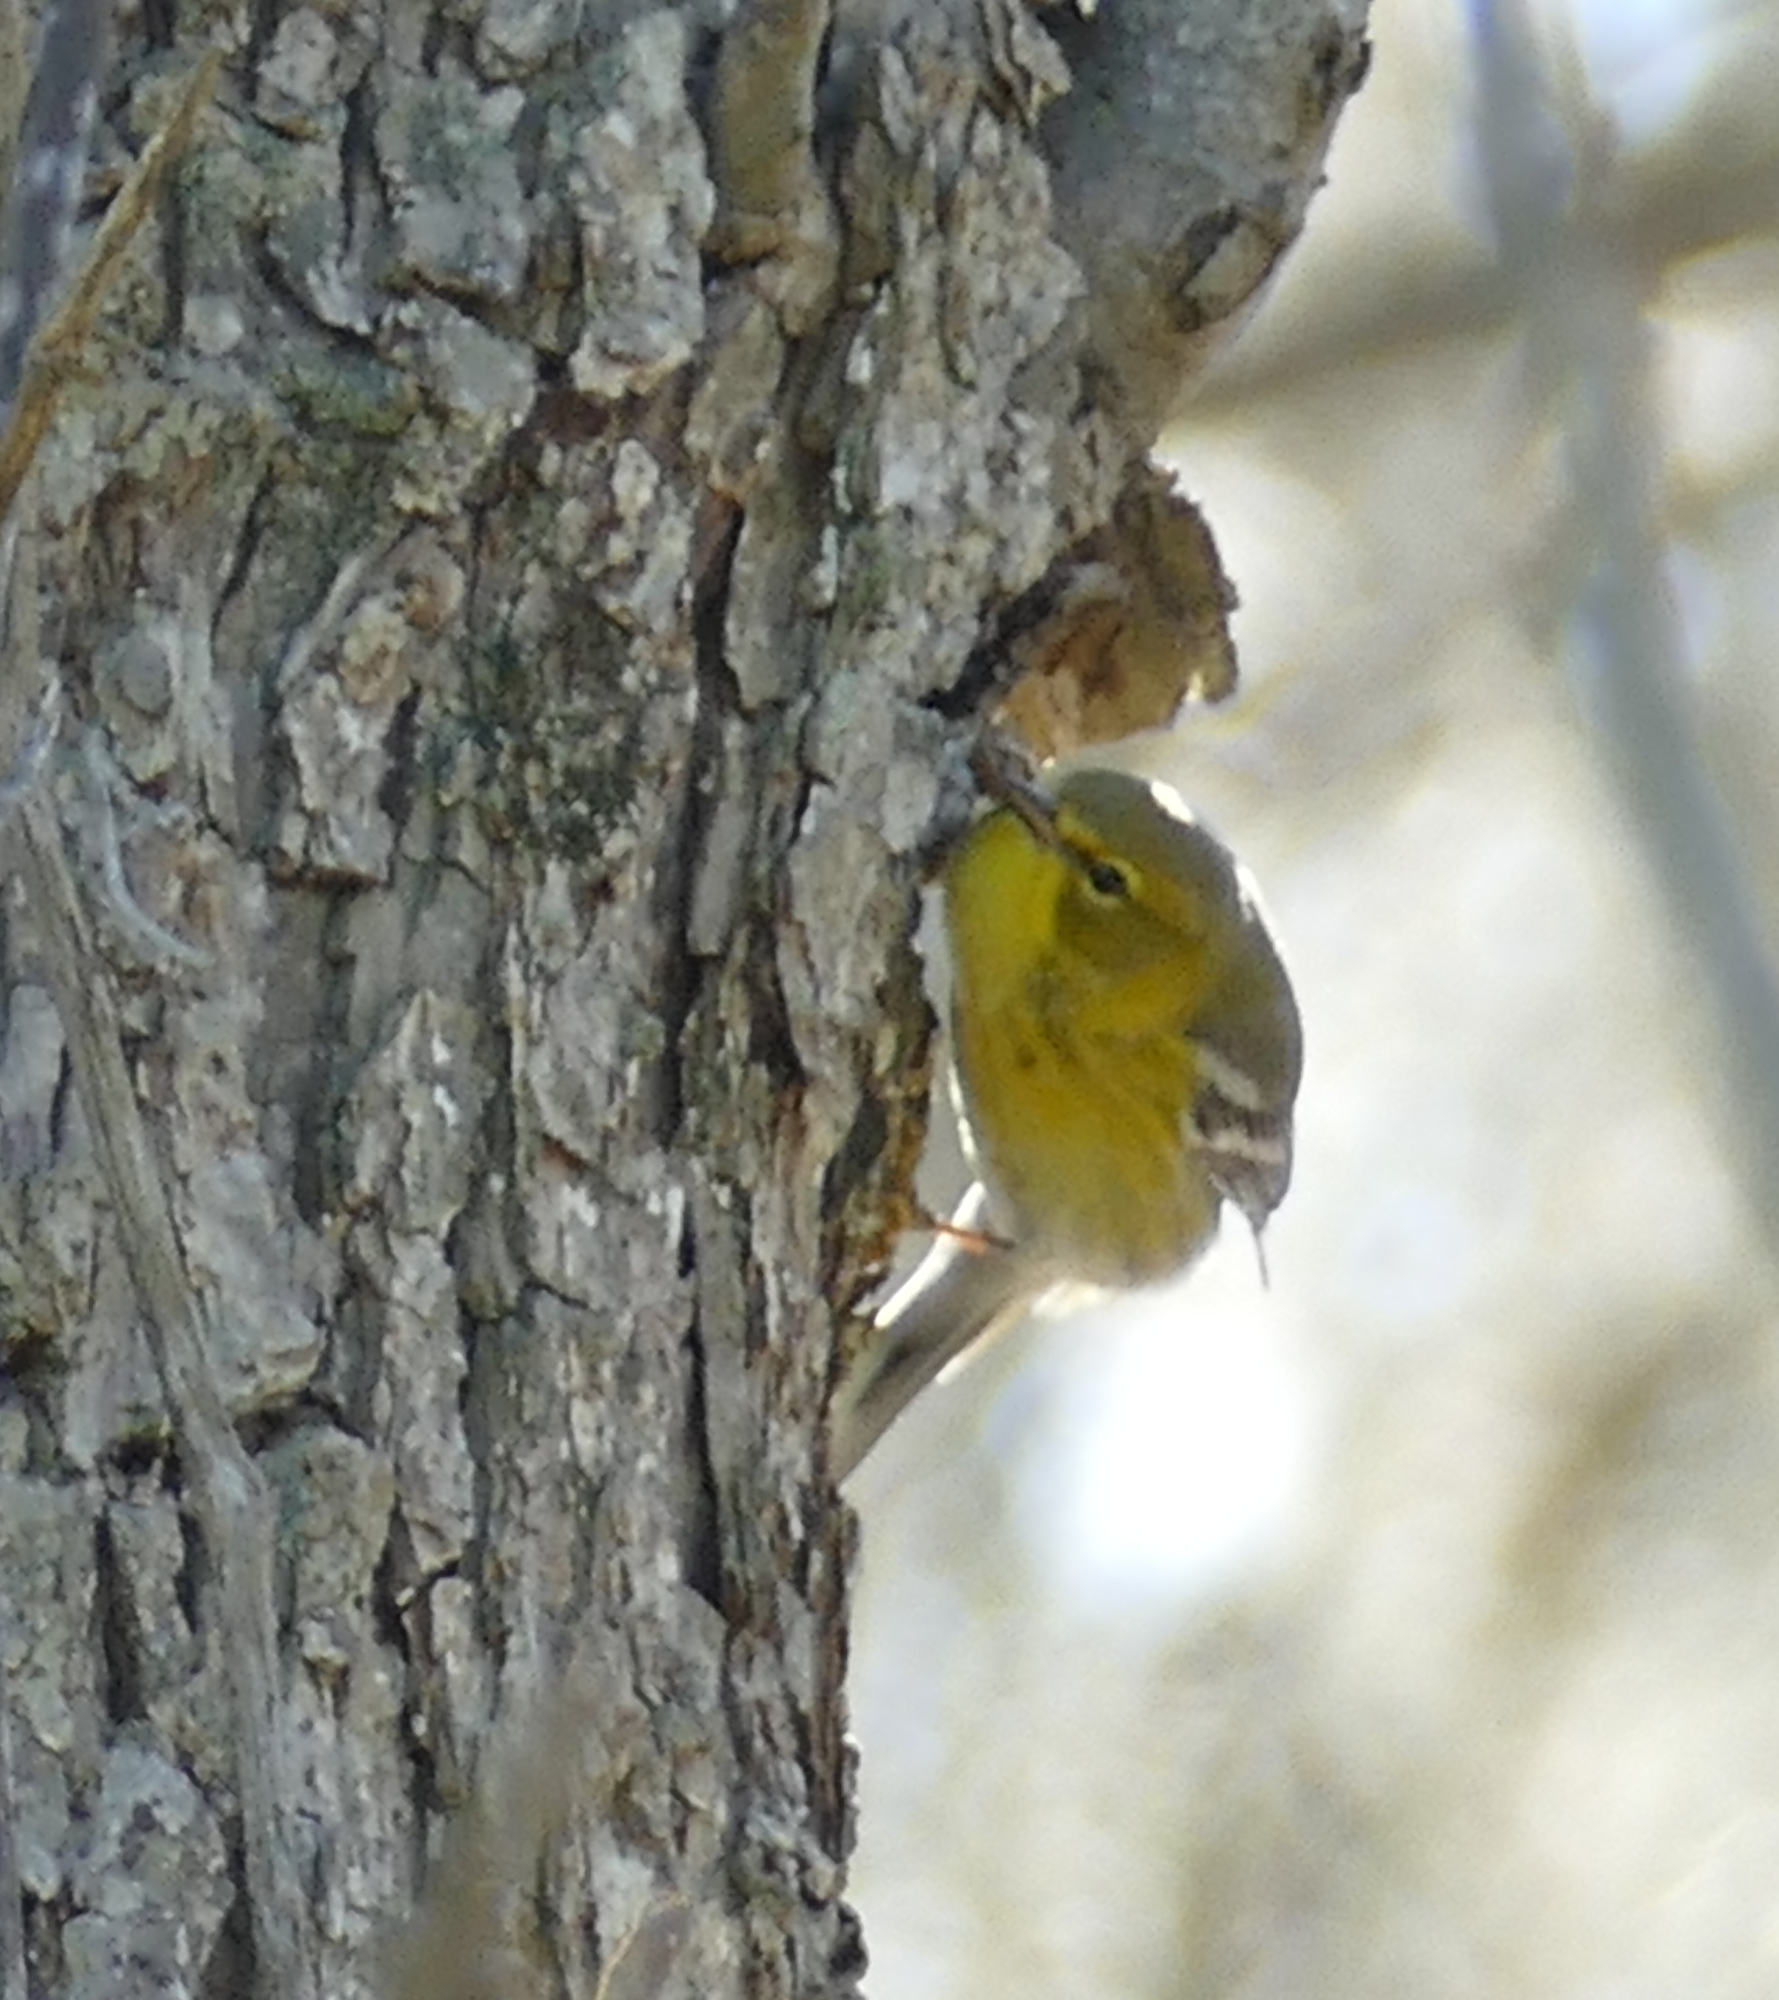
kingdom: Animalia
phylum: Chordata
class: Aves
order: Passeriformes
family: Parulidae
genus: Setophaga
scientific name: Setophaga pinus
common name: Pine warbler
